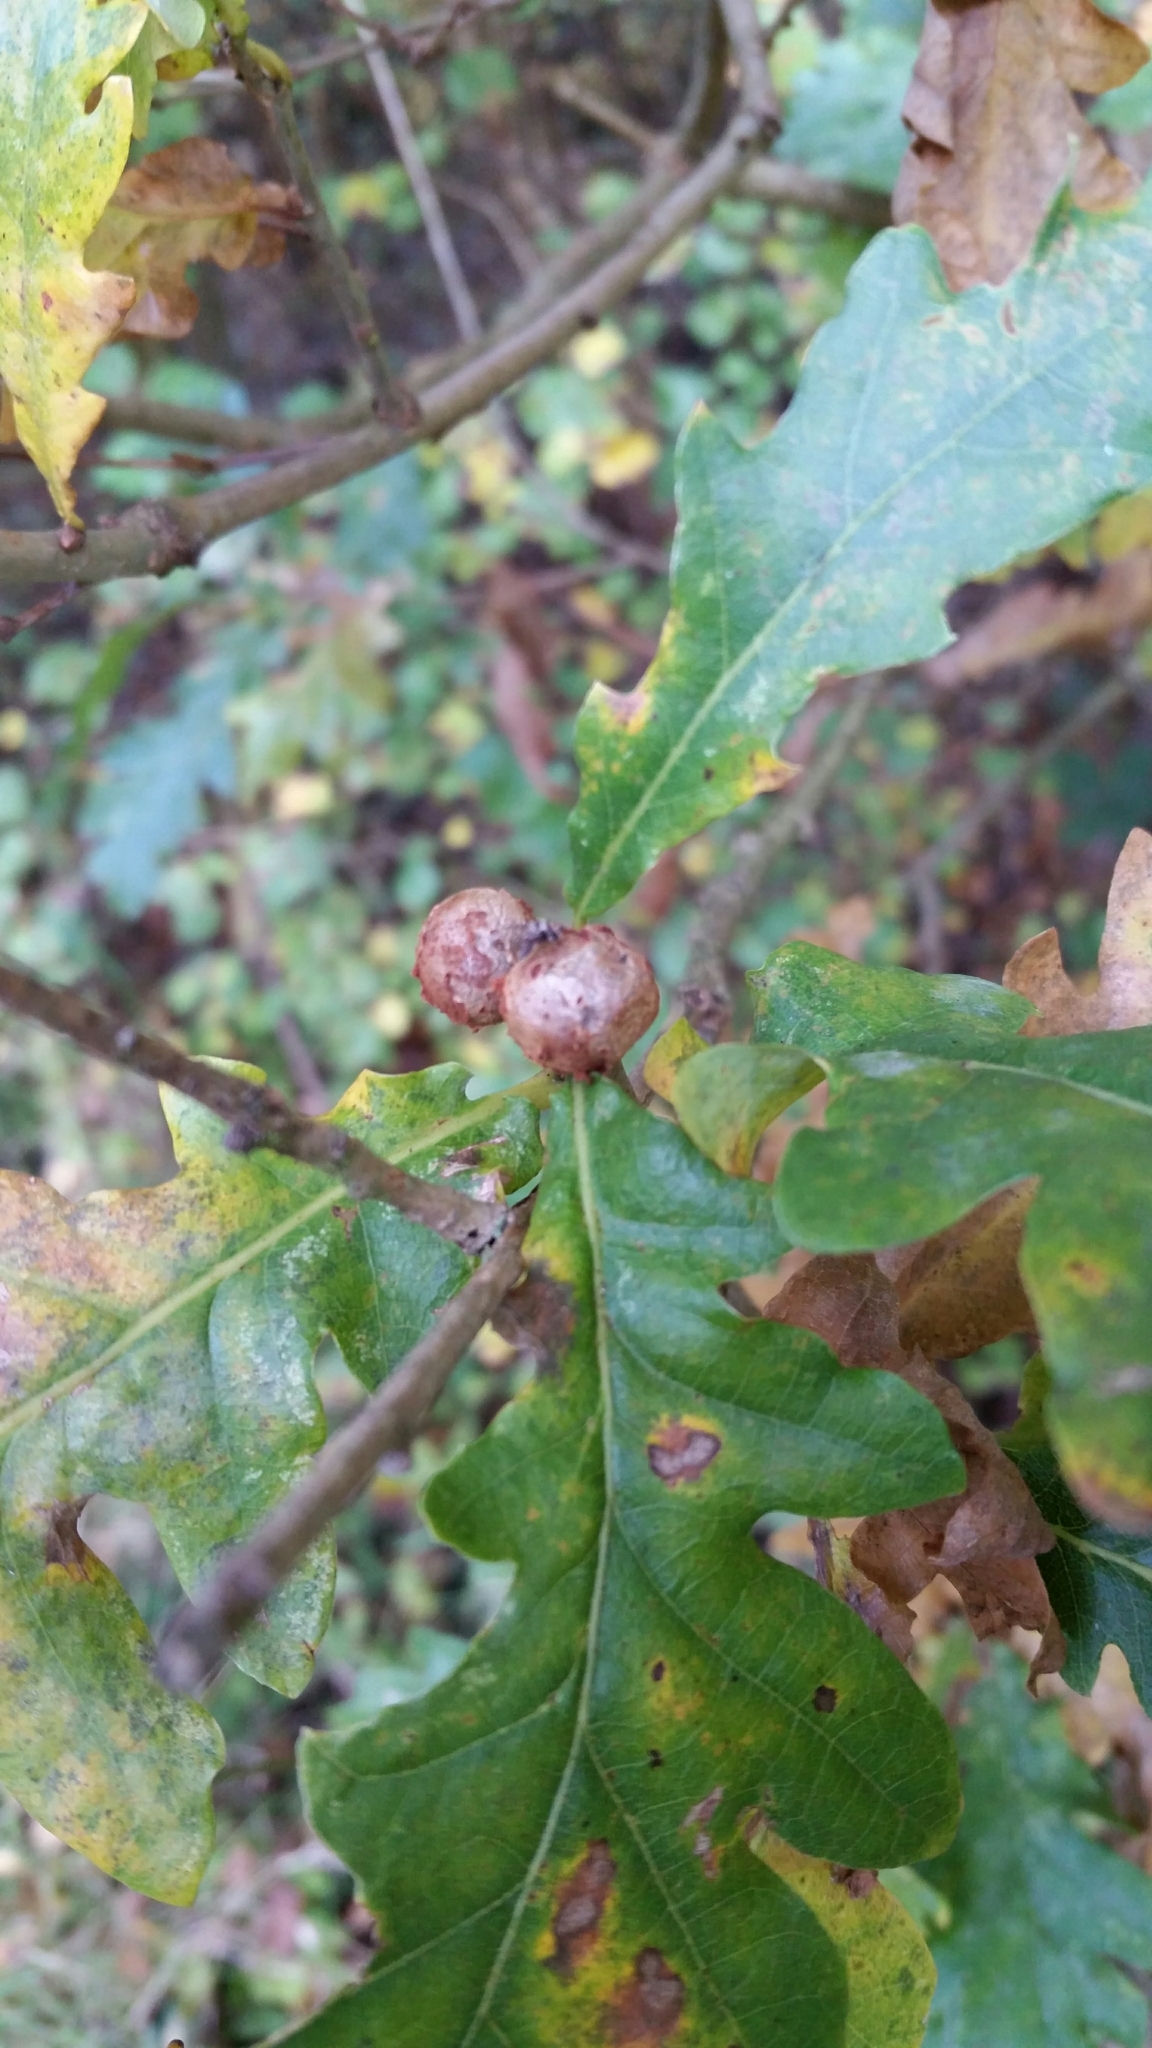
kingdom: Animalia
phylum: Arthropoda
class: Insecta
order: Hymenoptera
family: Cynipidae
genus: Andricus
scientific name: Andricus lignicolus
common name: Cola-nut gall
